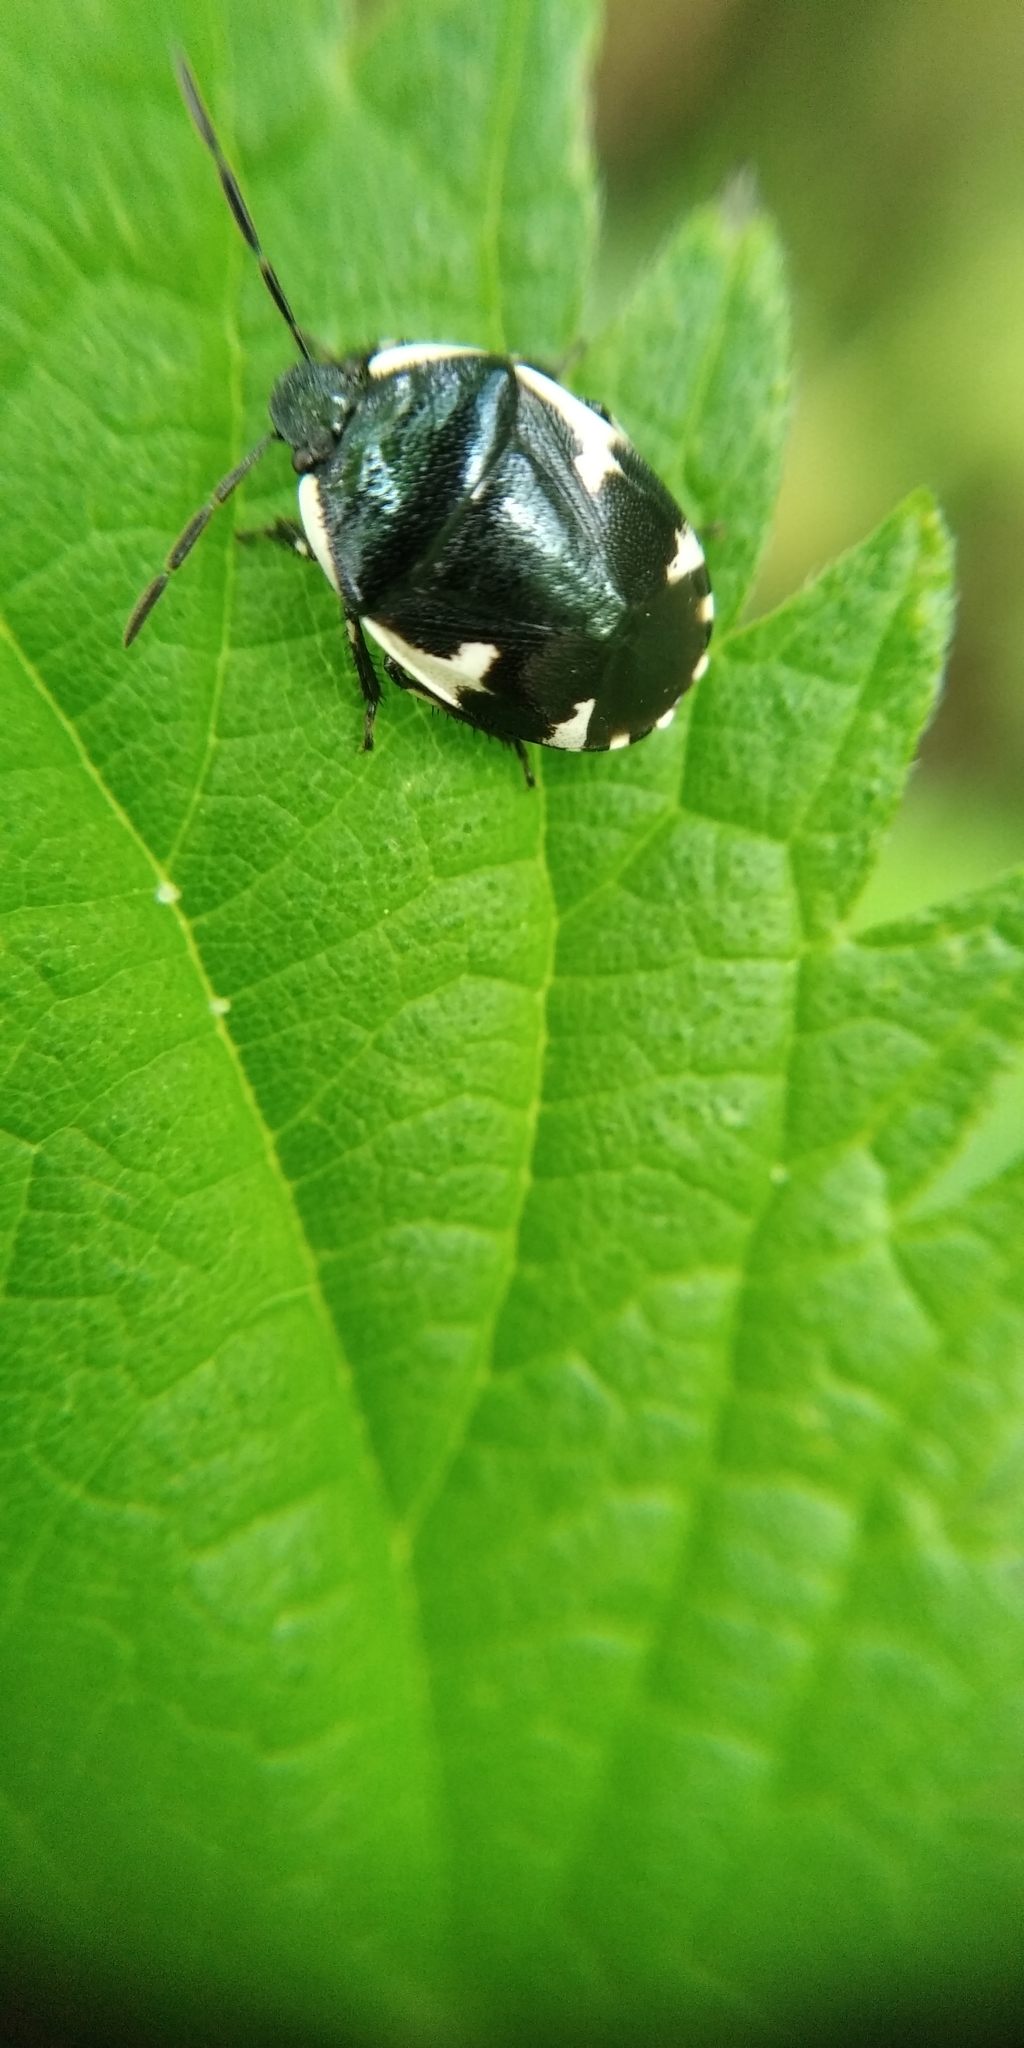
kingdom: Animalia
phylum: Arthropoda
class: Insecta
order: Hemiptera
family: Cydnidae
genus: Tritomegas
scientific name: Tritomegas sexmaculatus
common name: Rambur's pied shieldbug
